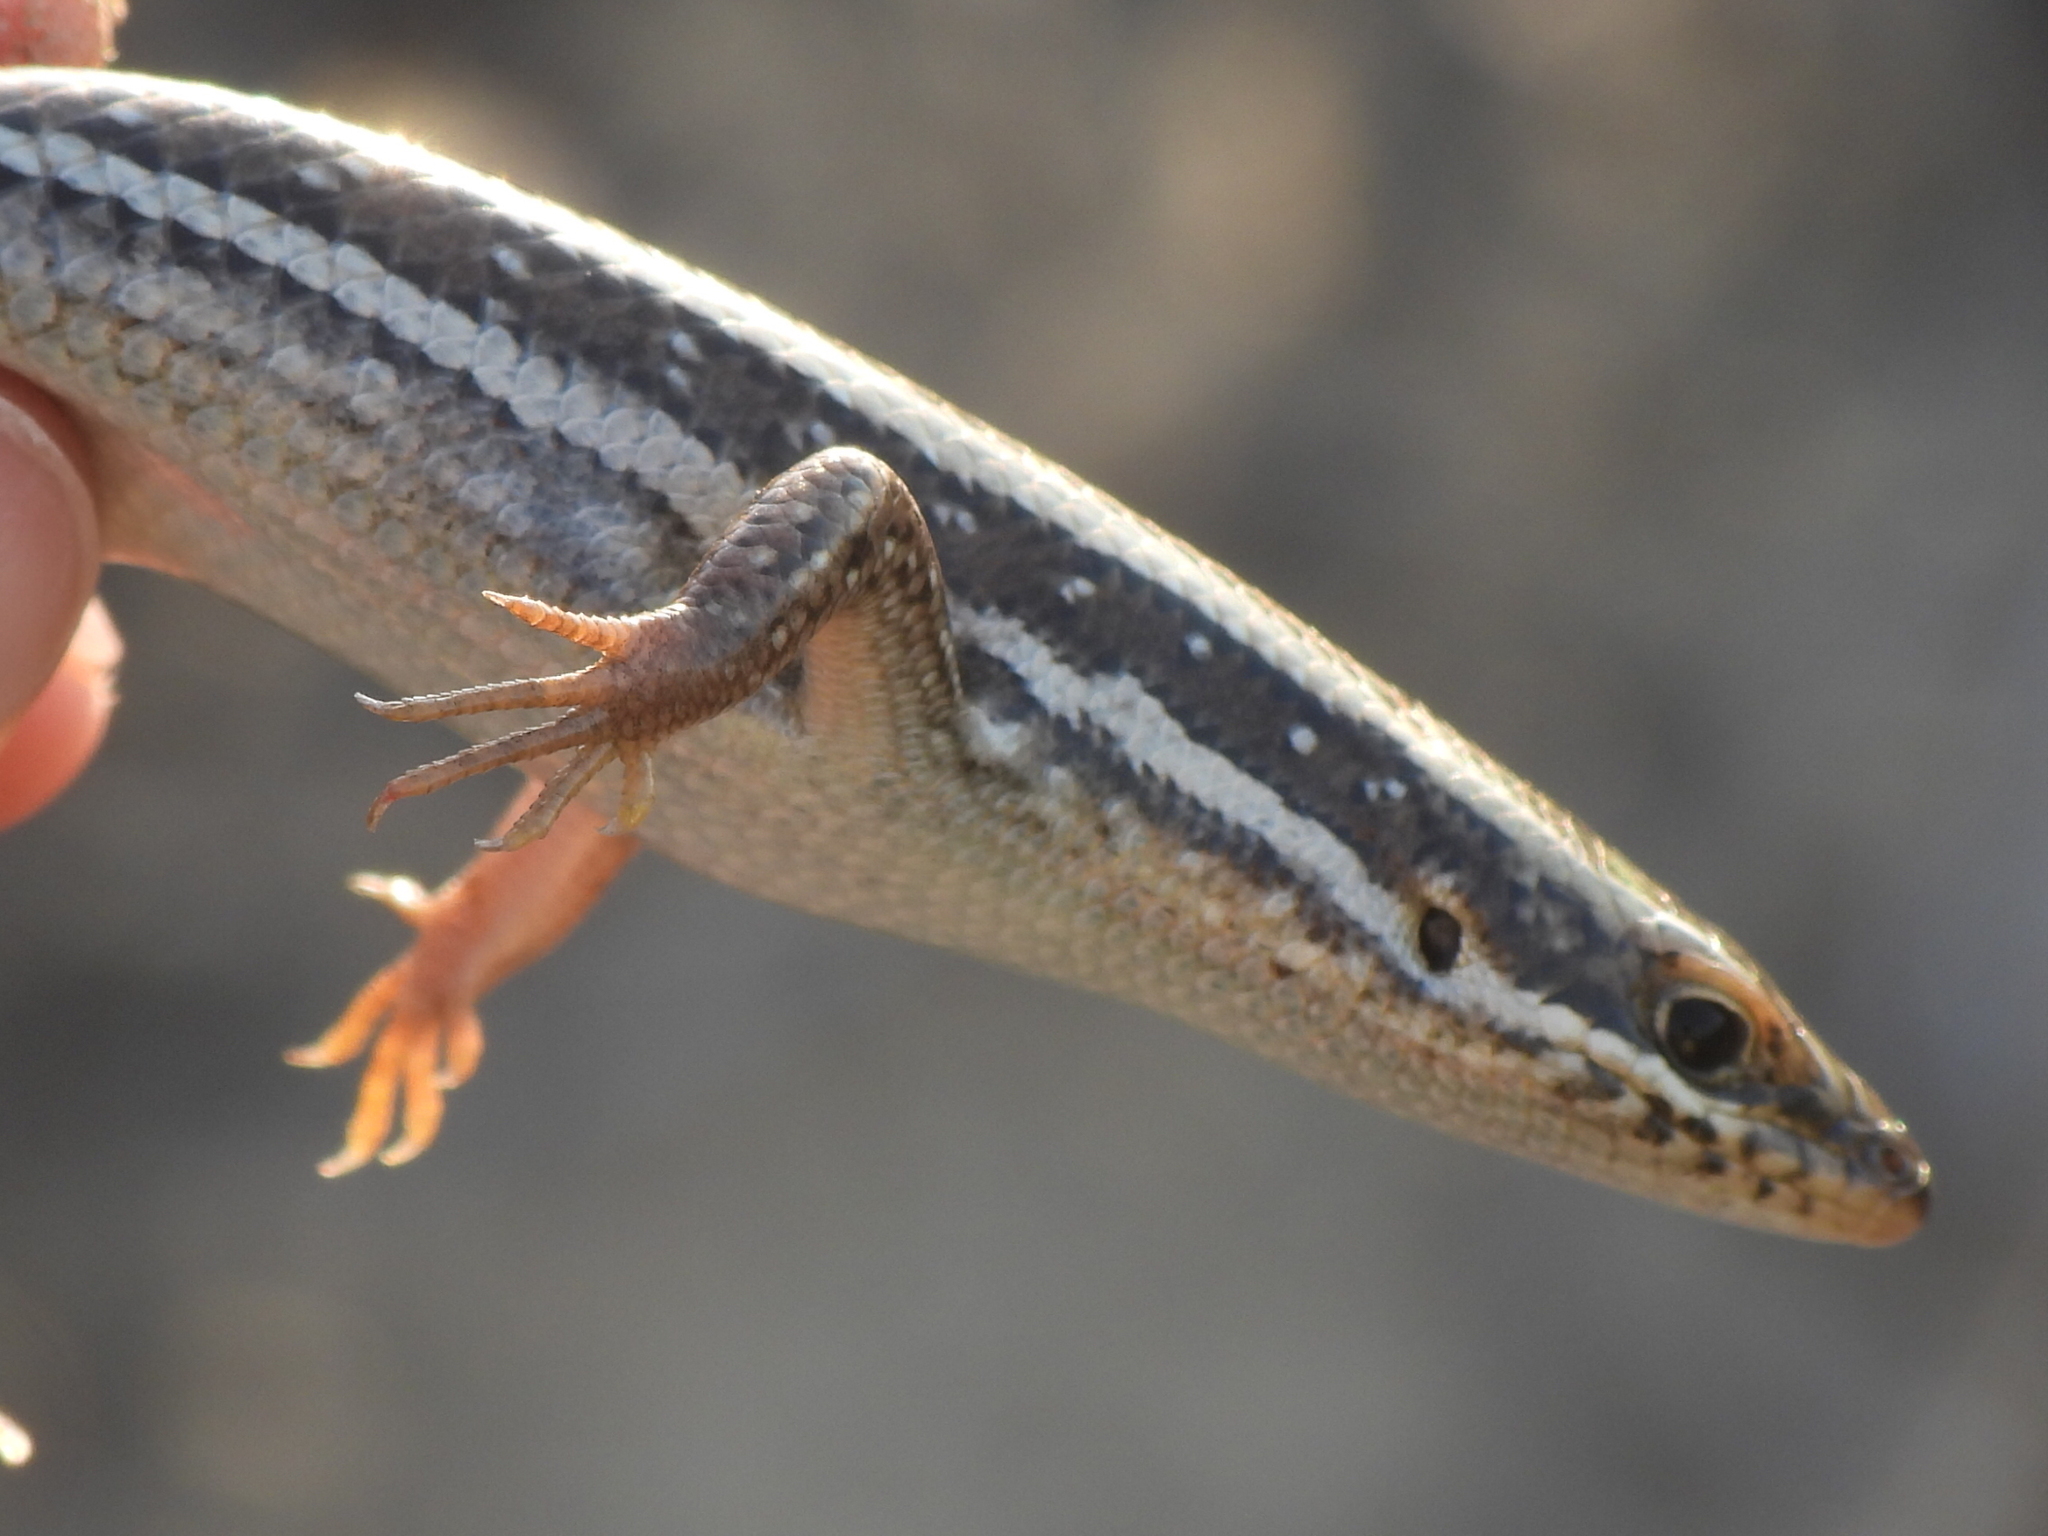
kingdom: Animalia
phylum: Chordata
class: Squamata
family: Scincidae
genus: Heremites
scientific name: Heremites septemtaeniatus
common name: Golden grass mabuya
